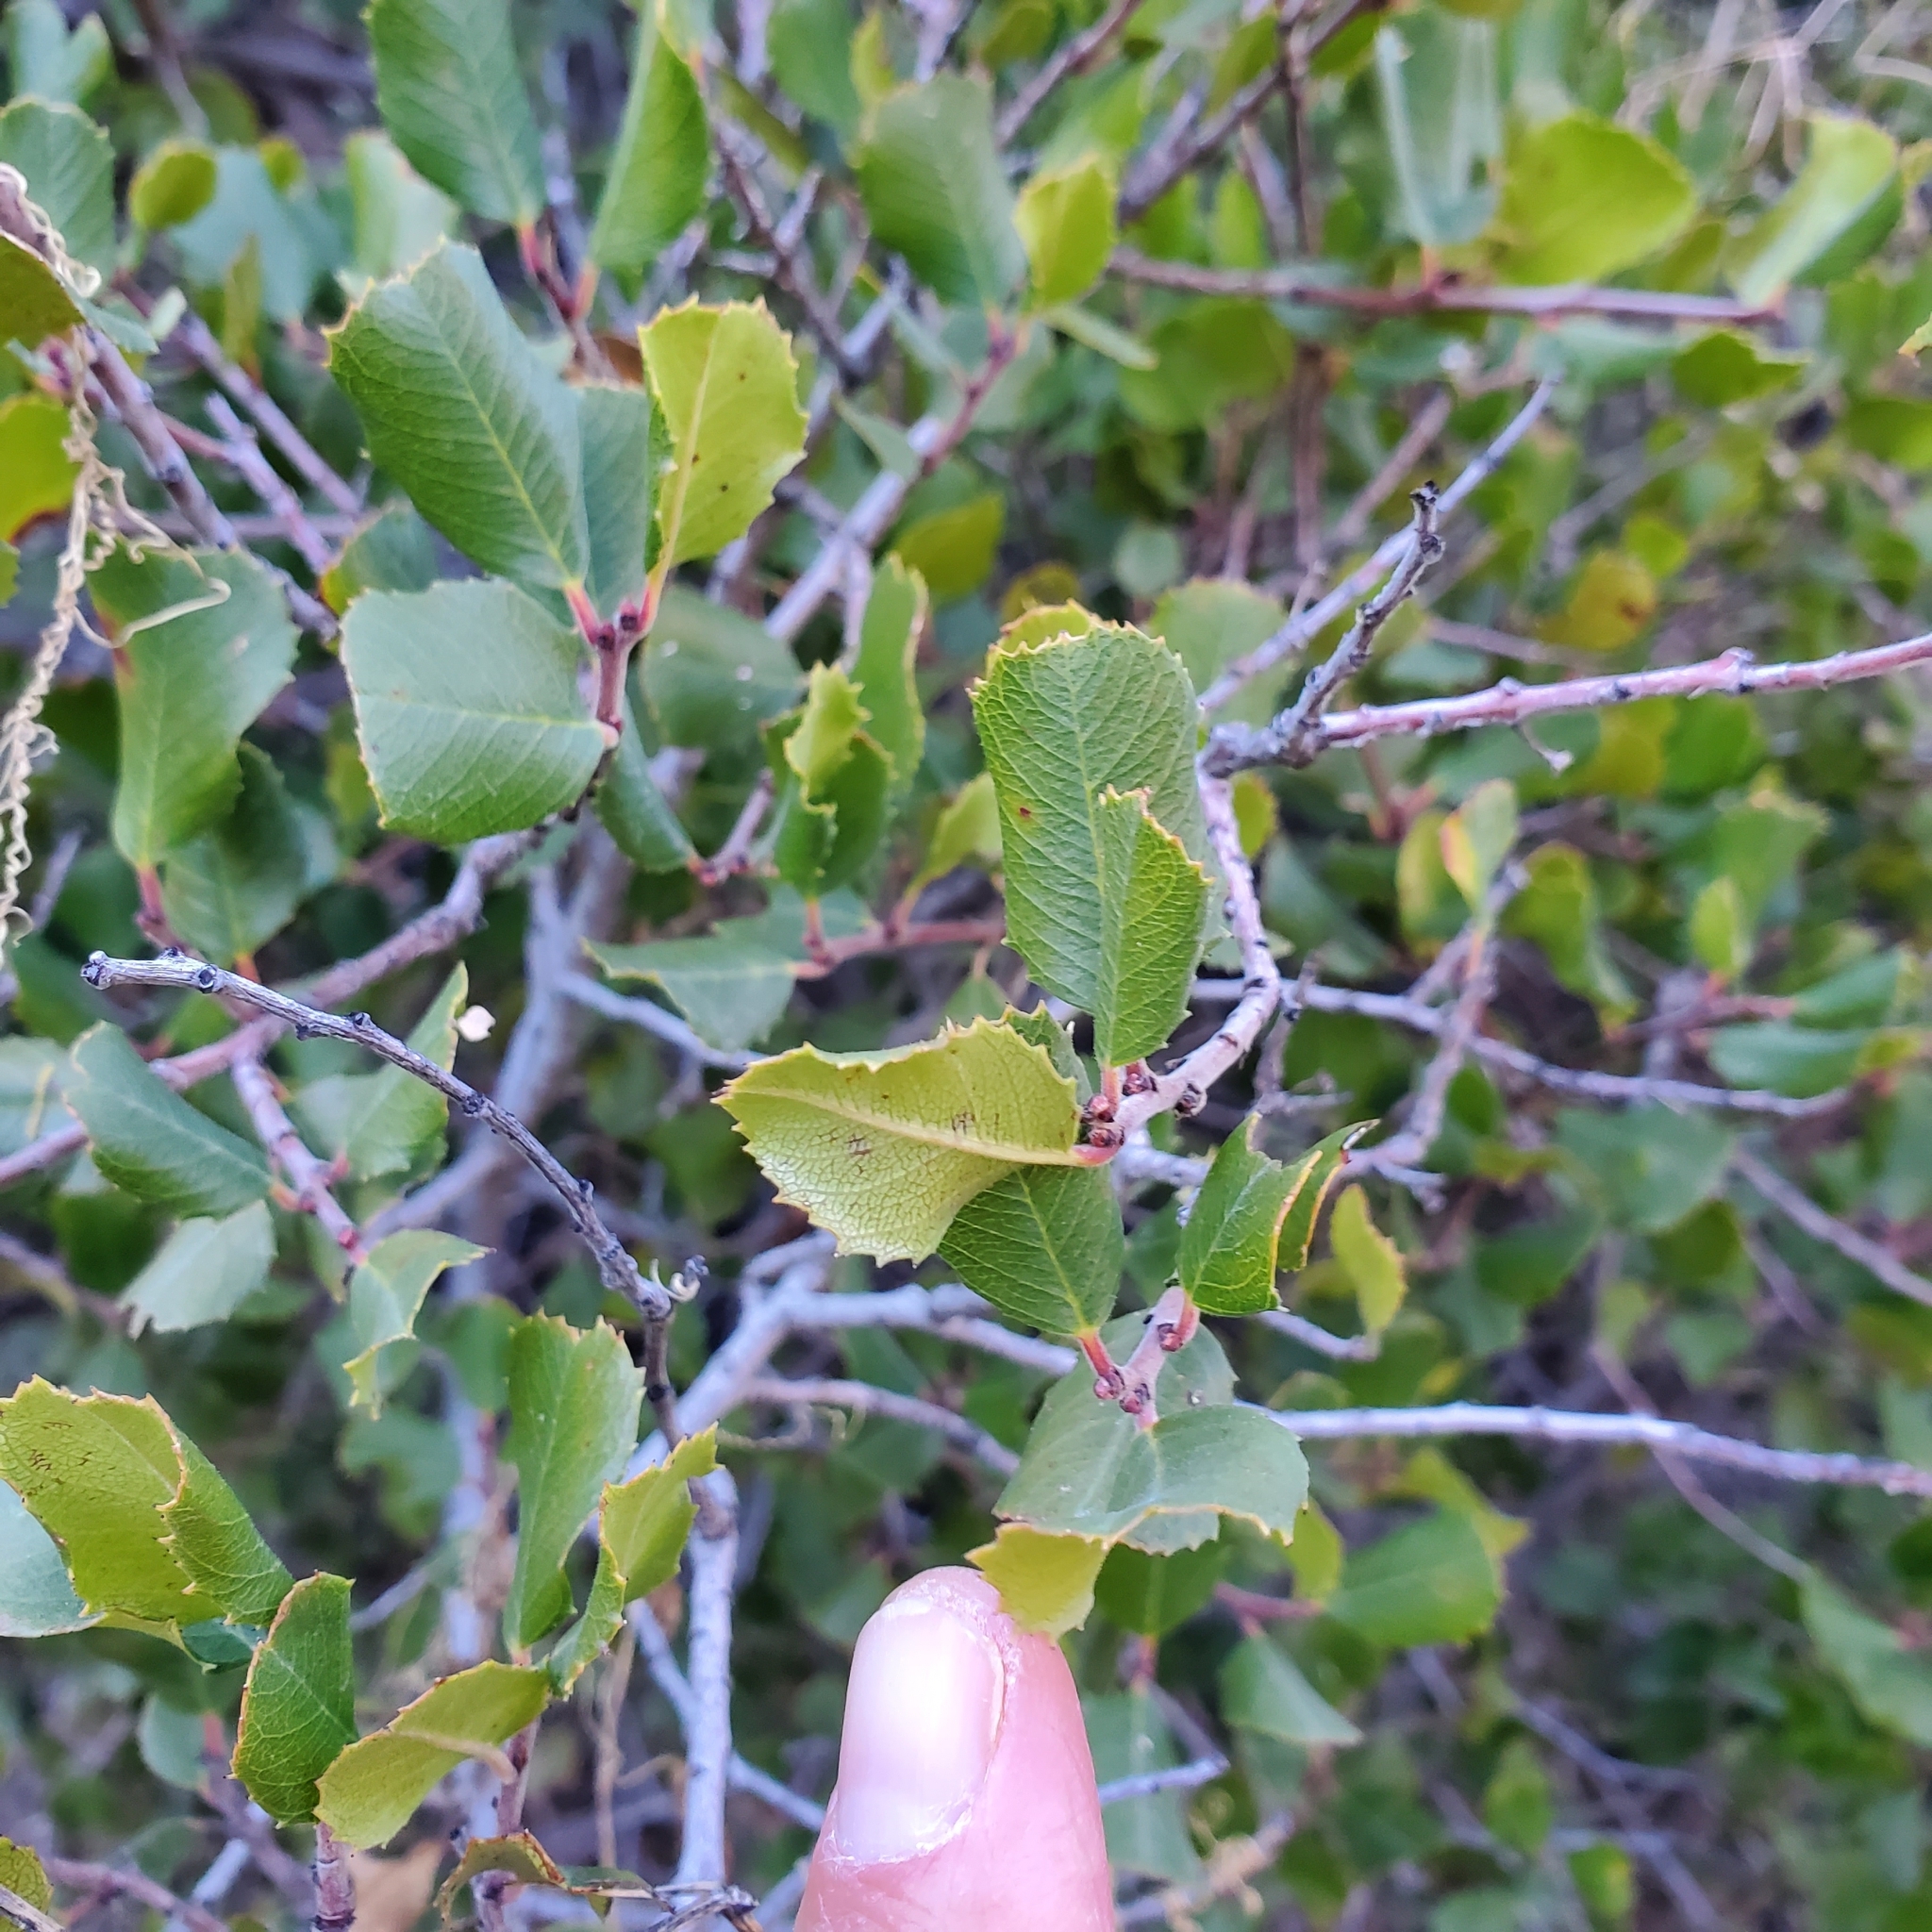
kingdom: Plantae
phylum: Tracheophyta
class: Magnoliopsida
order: Rosales
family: Rhamnaceae
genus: Endotropis
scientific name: Endotropis crocea
